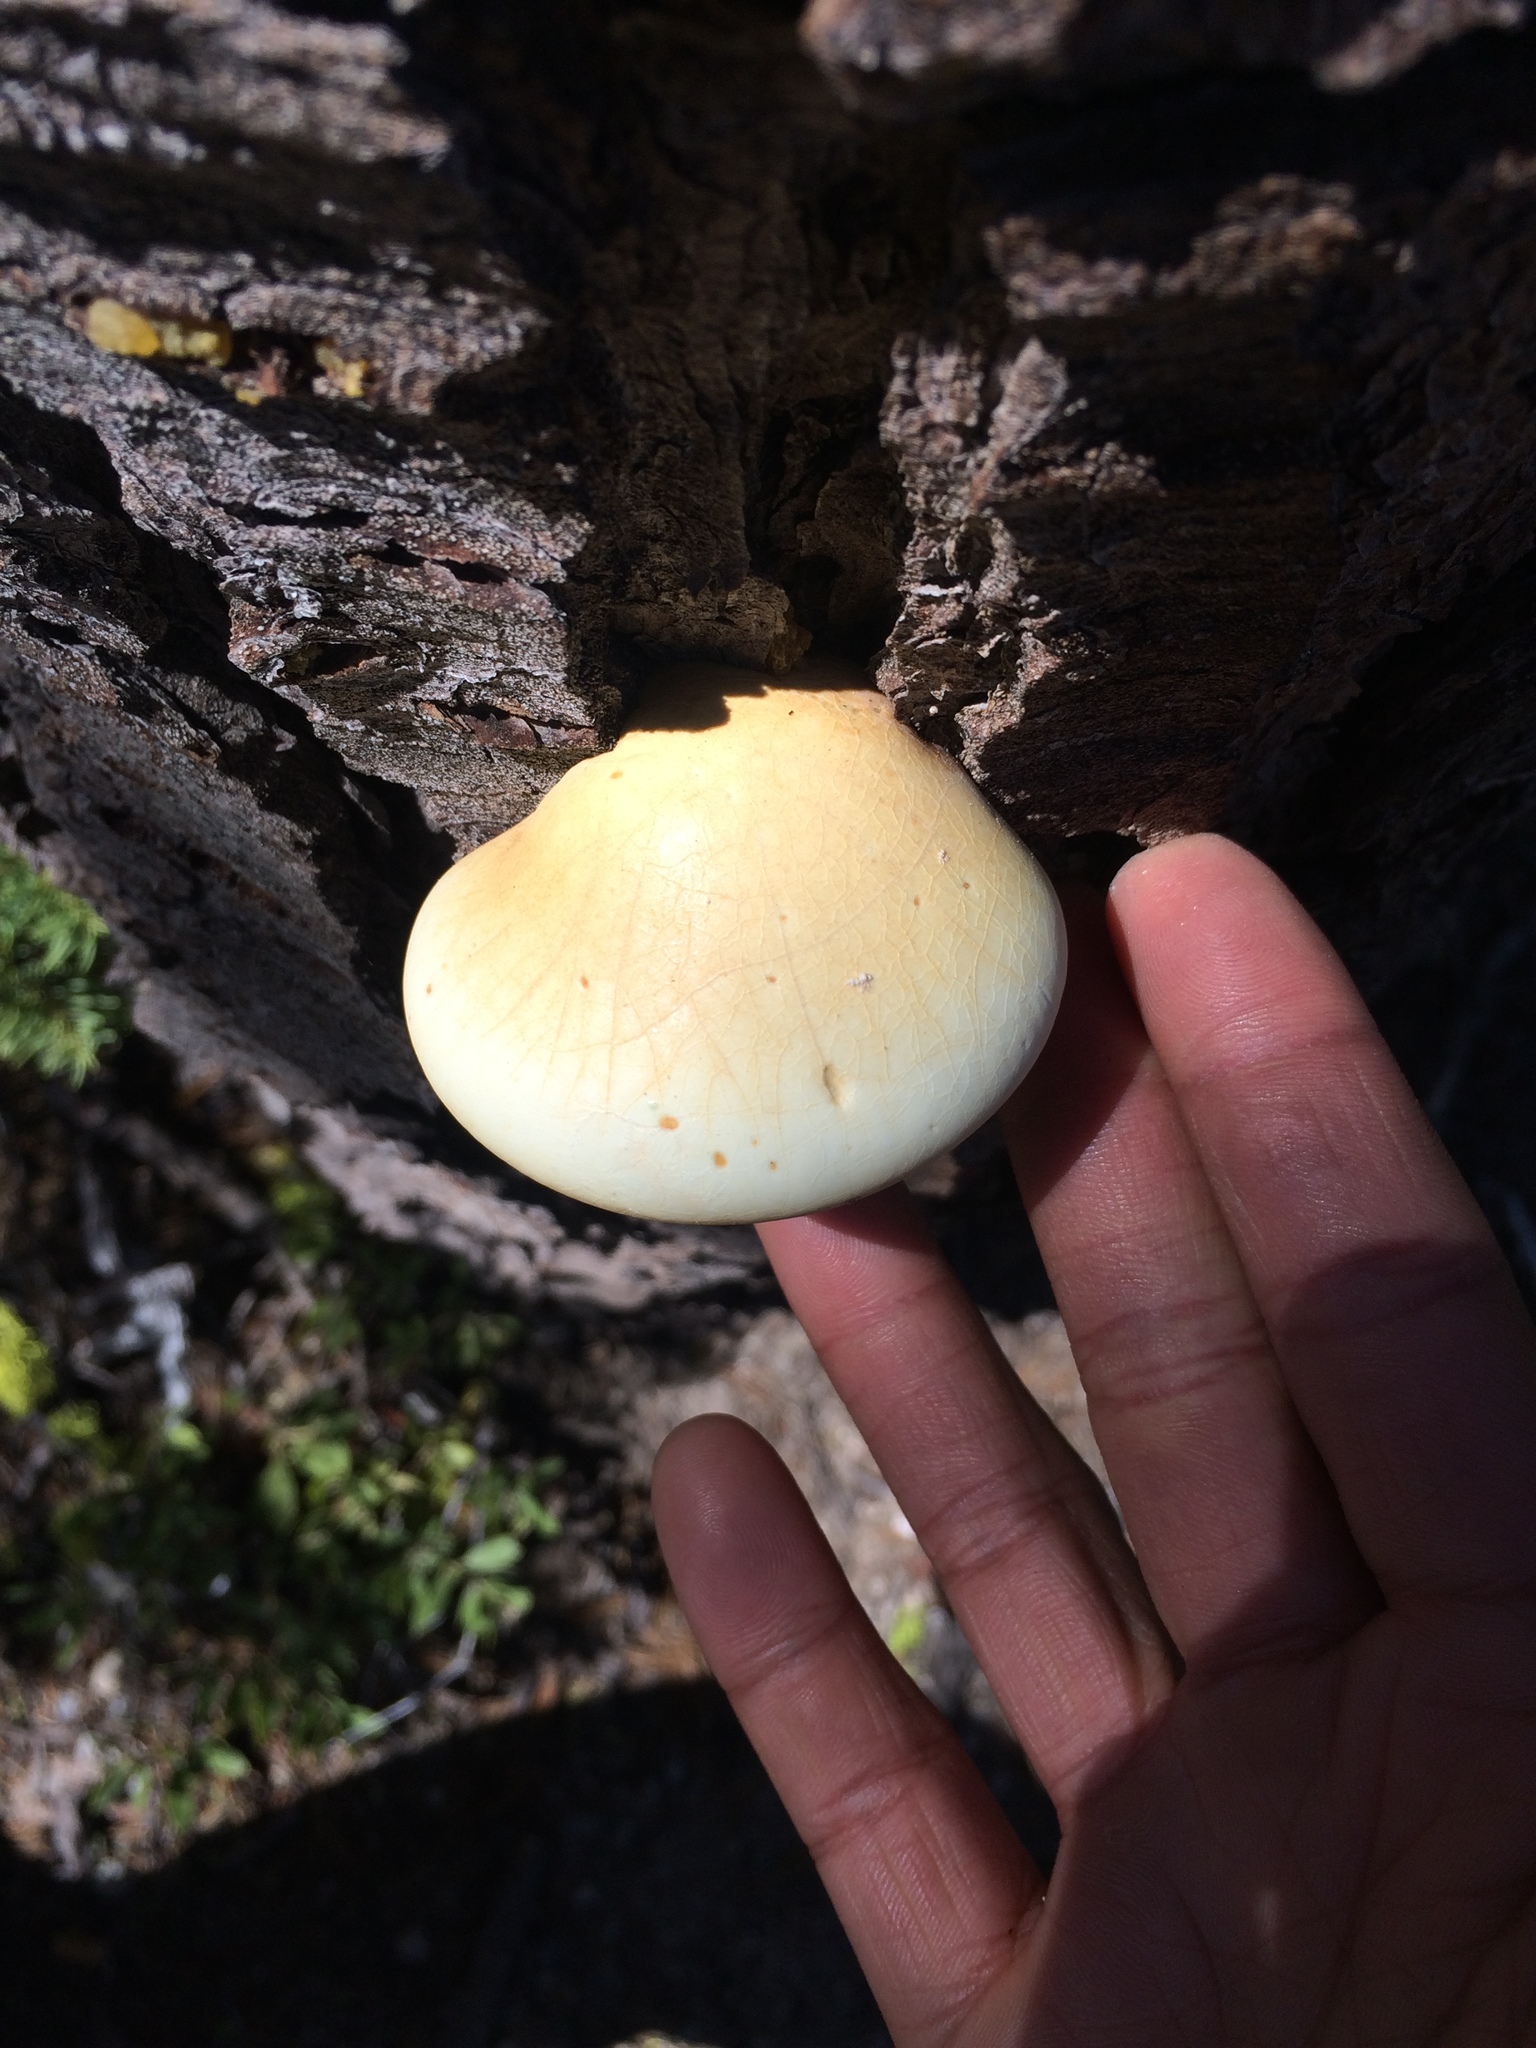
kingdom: Fungi
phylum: Basidiomycota
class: Agaricomycetes
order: Polyporales
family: Polyporaceae
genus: Cryptoporus
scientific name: Cryptoporus volvatus
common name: Veiled polypore
